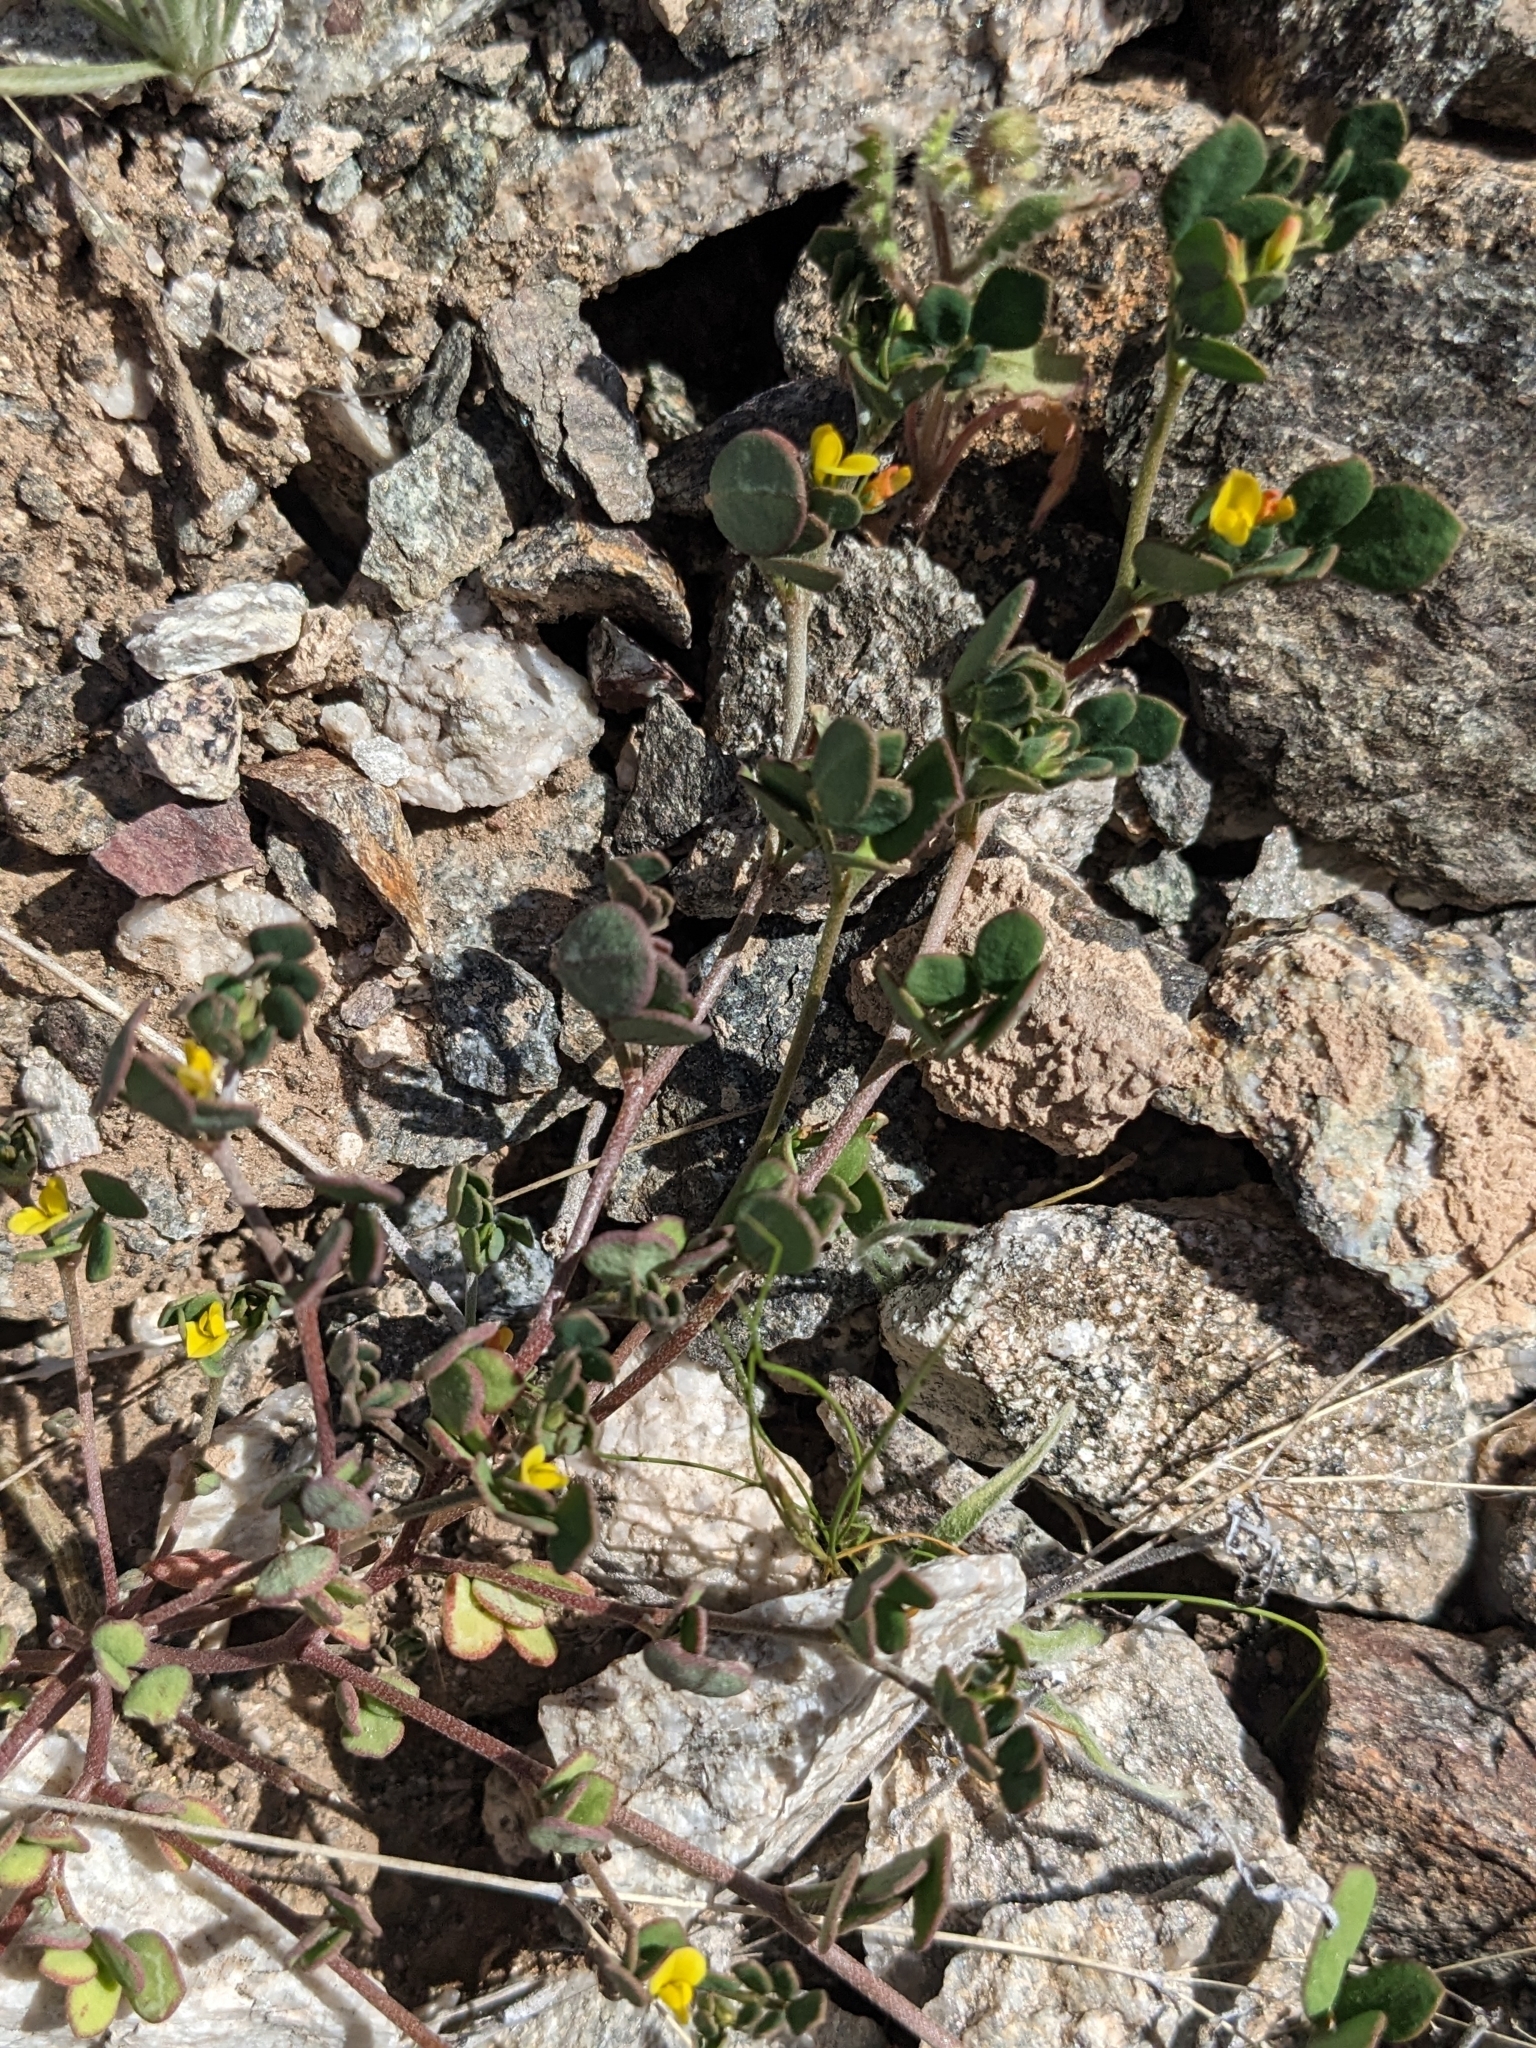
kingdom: Plantae
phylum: Tracheophyta
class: Magnoliopsida
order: Fabales
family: Fabaceae
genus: Acmispon
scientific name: Acmispon maritimus
